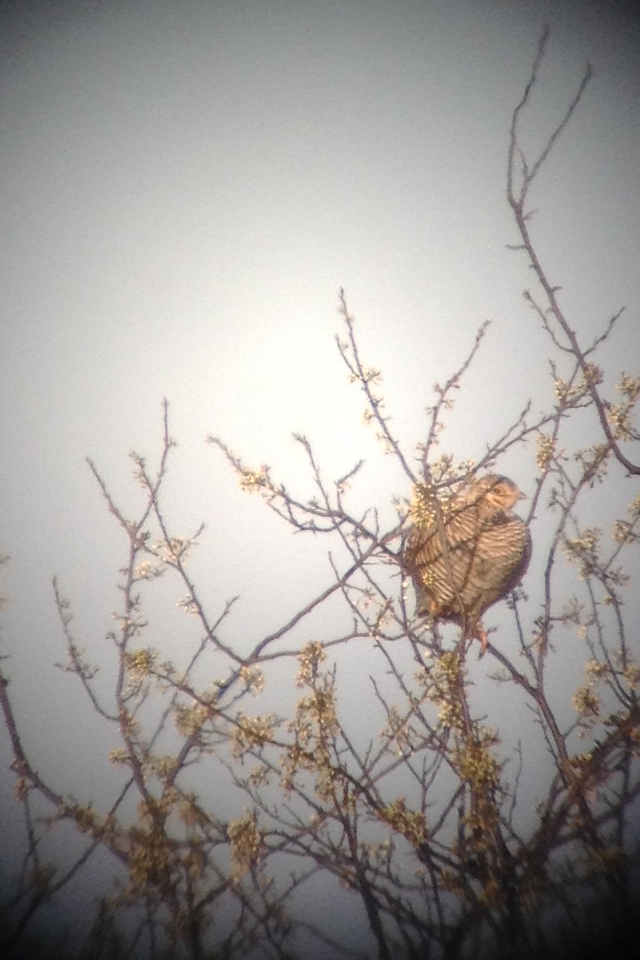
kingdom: Animalia
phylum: Chordata
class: Aves
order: Galliformes
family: Phasianidae
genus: Tympanuchus
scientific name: Tympanuchus cupido
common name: Greater prairie chicken
